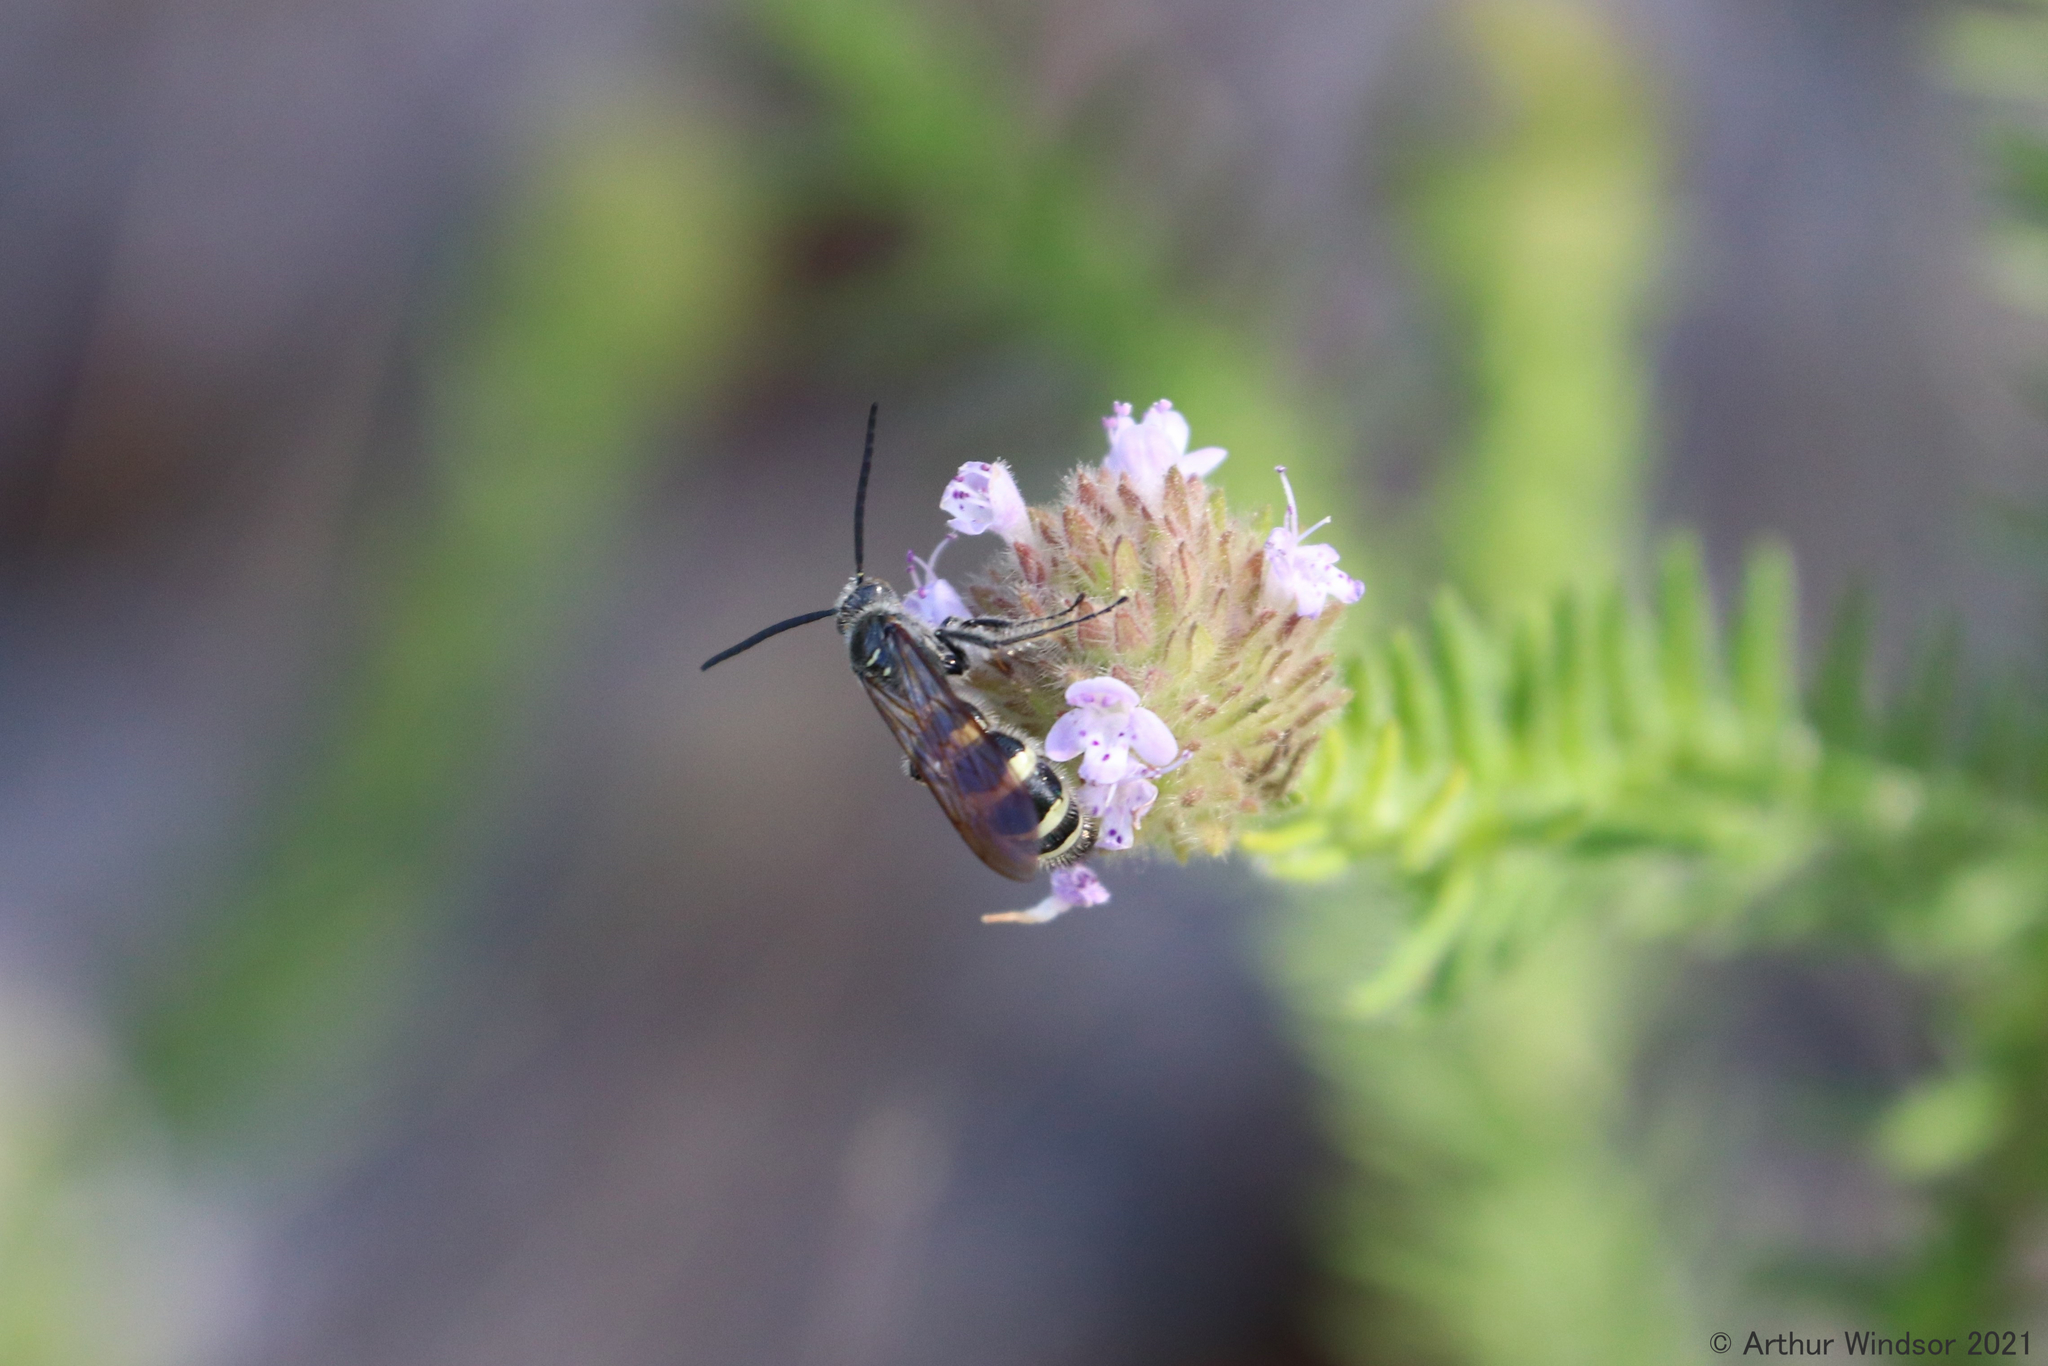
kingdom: Animalia
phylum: Arthropoda
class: Insecta
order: Hymenoptera
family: Scoliidae
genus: Dielis
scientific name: Dielis
